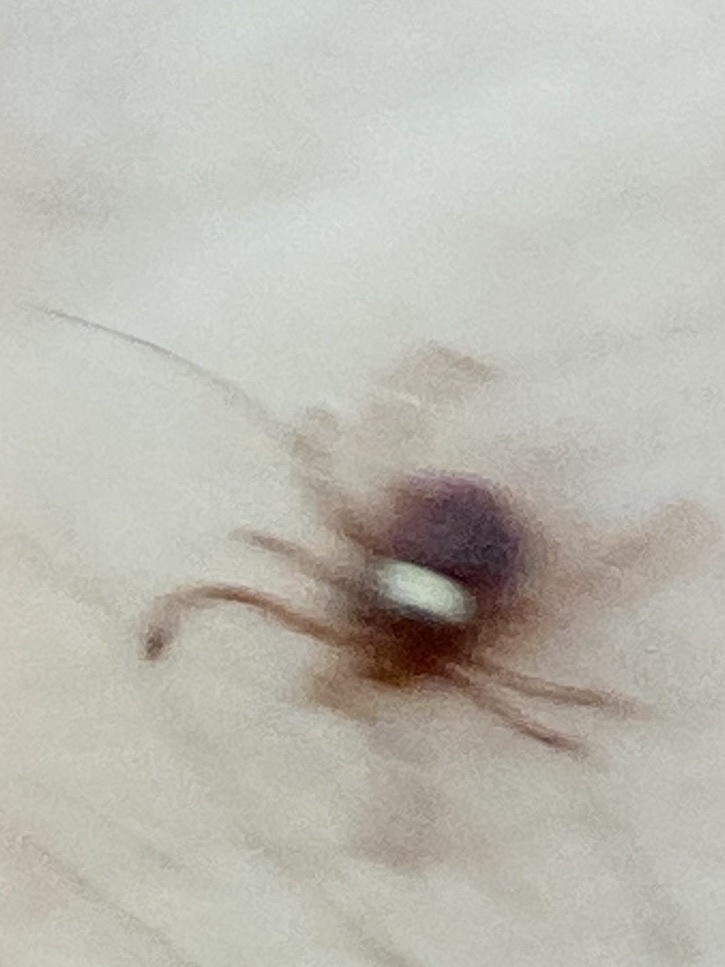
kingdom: Animalia
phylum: Arthropoda
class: Arachnida
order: Ixodida
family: Ixodidae
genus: Amblyomma
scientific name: Amblyomma americanum
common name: Lone star tick
